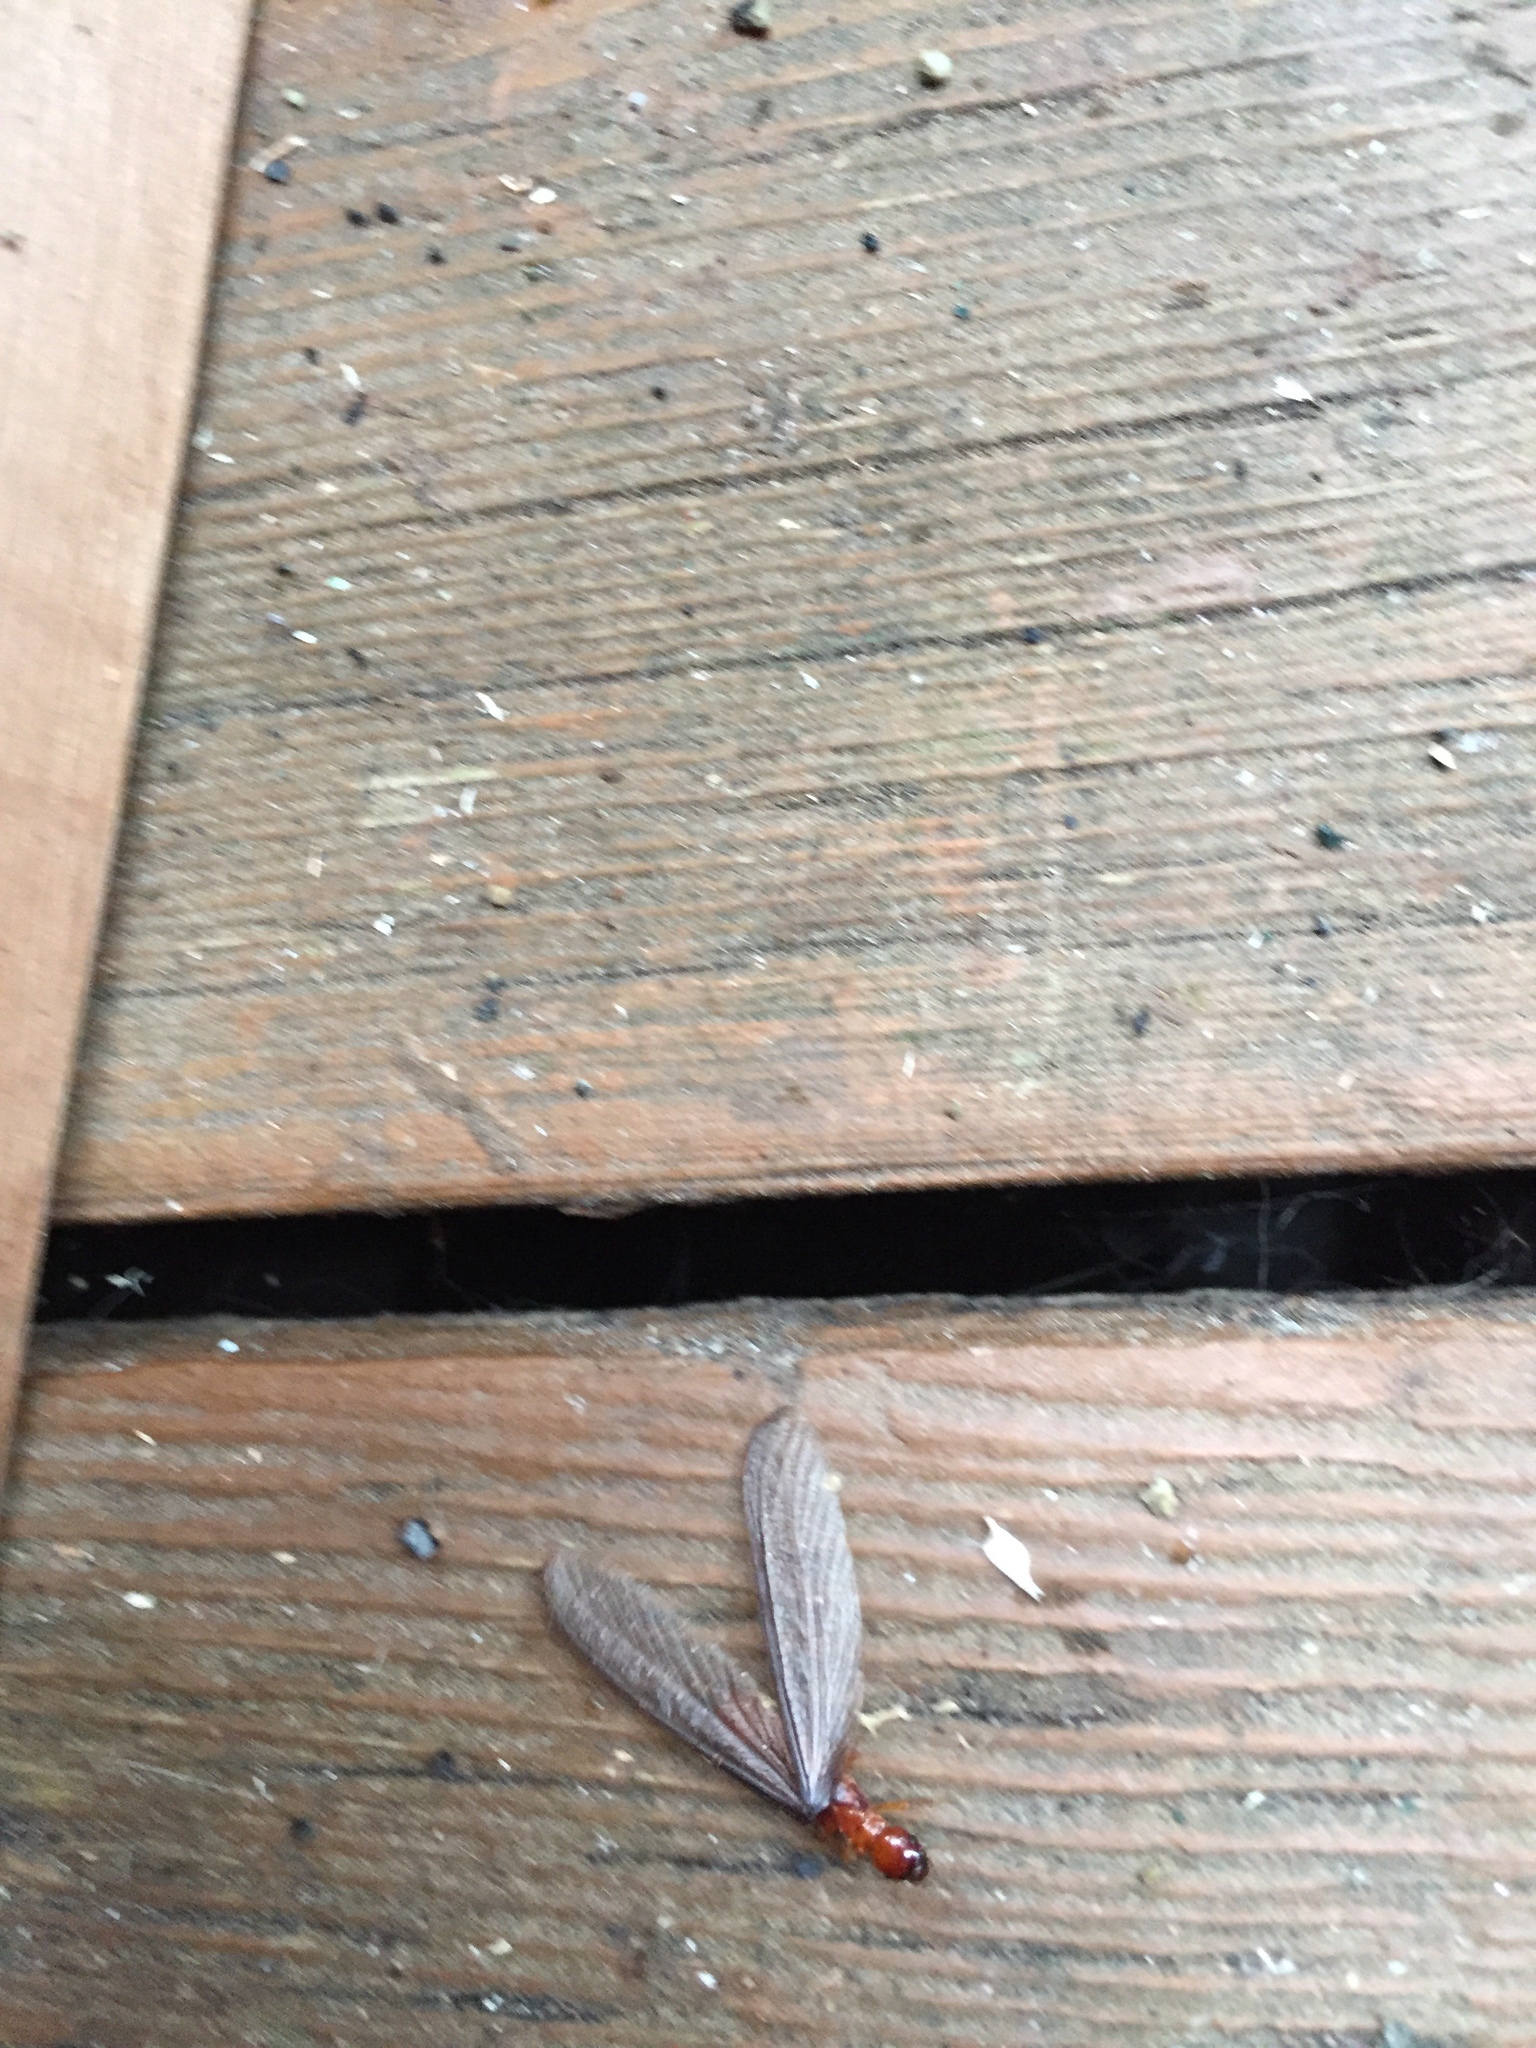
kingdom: Animalia
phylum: Arthropoda
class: Insecta
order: Blattodea
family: Archotermopsidae
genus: Zootermopsis
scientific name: Zootermopsis angusticollis
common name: Rottenwood termite
